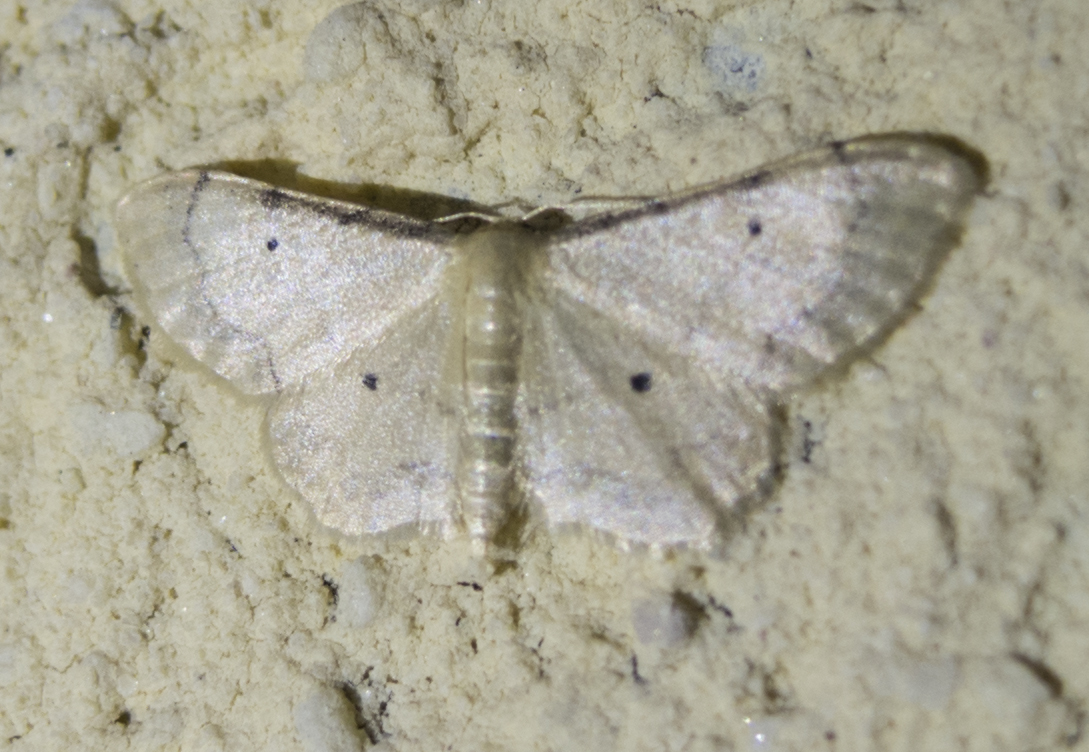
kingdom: Animalia
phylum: Arthropoda
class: Insecta
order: Lepidoptera
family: Geometridae
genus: Idaea
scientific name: Idaea politaria
